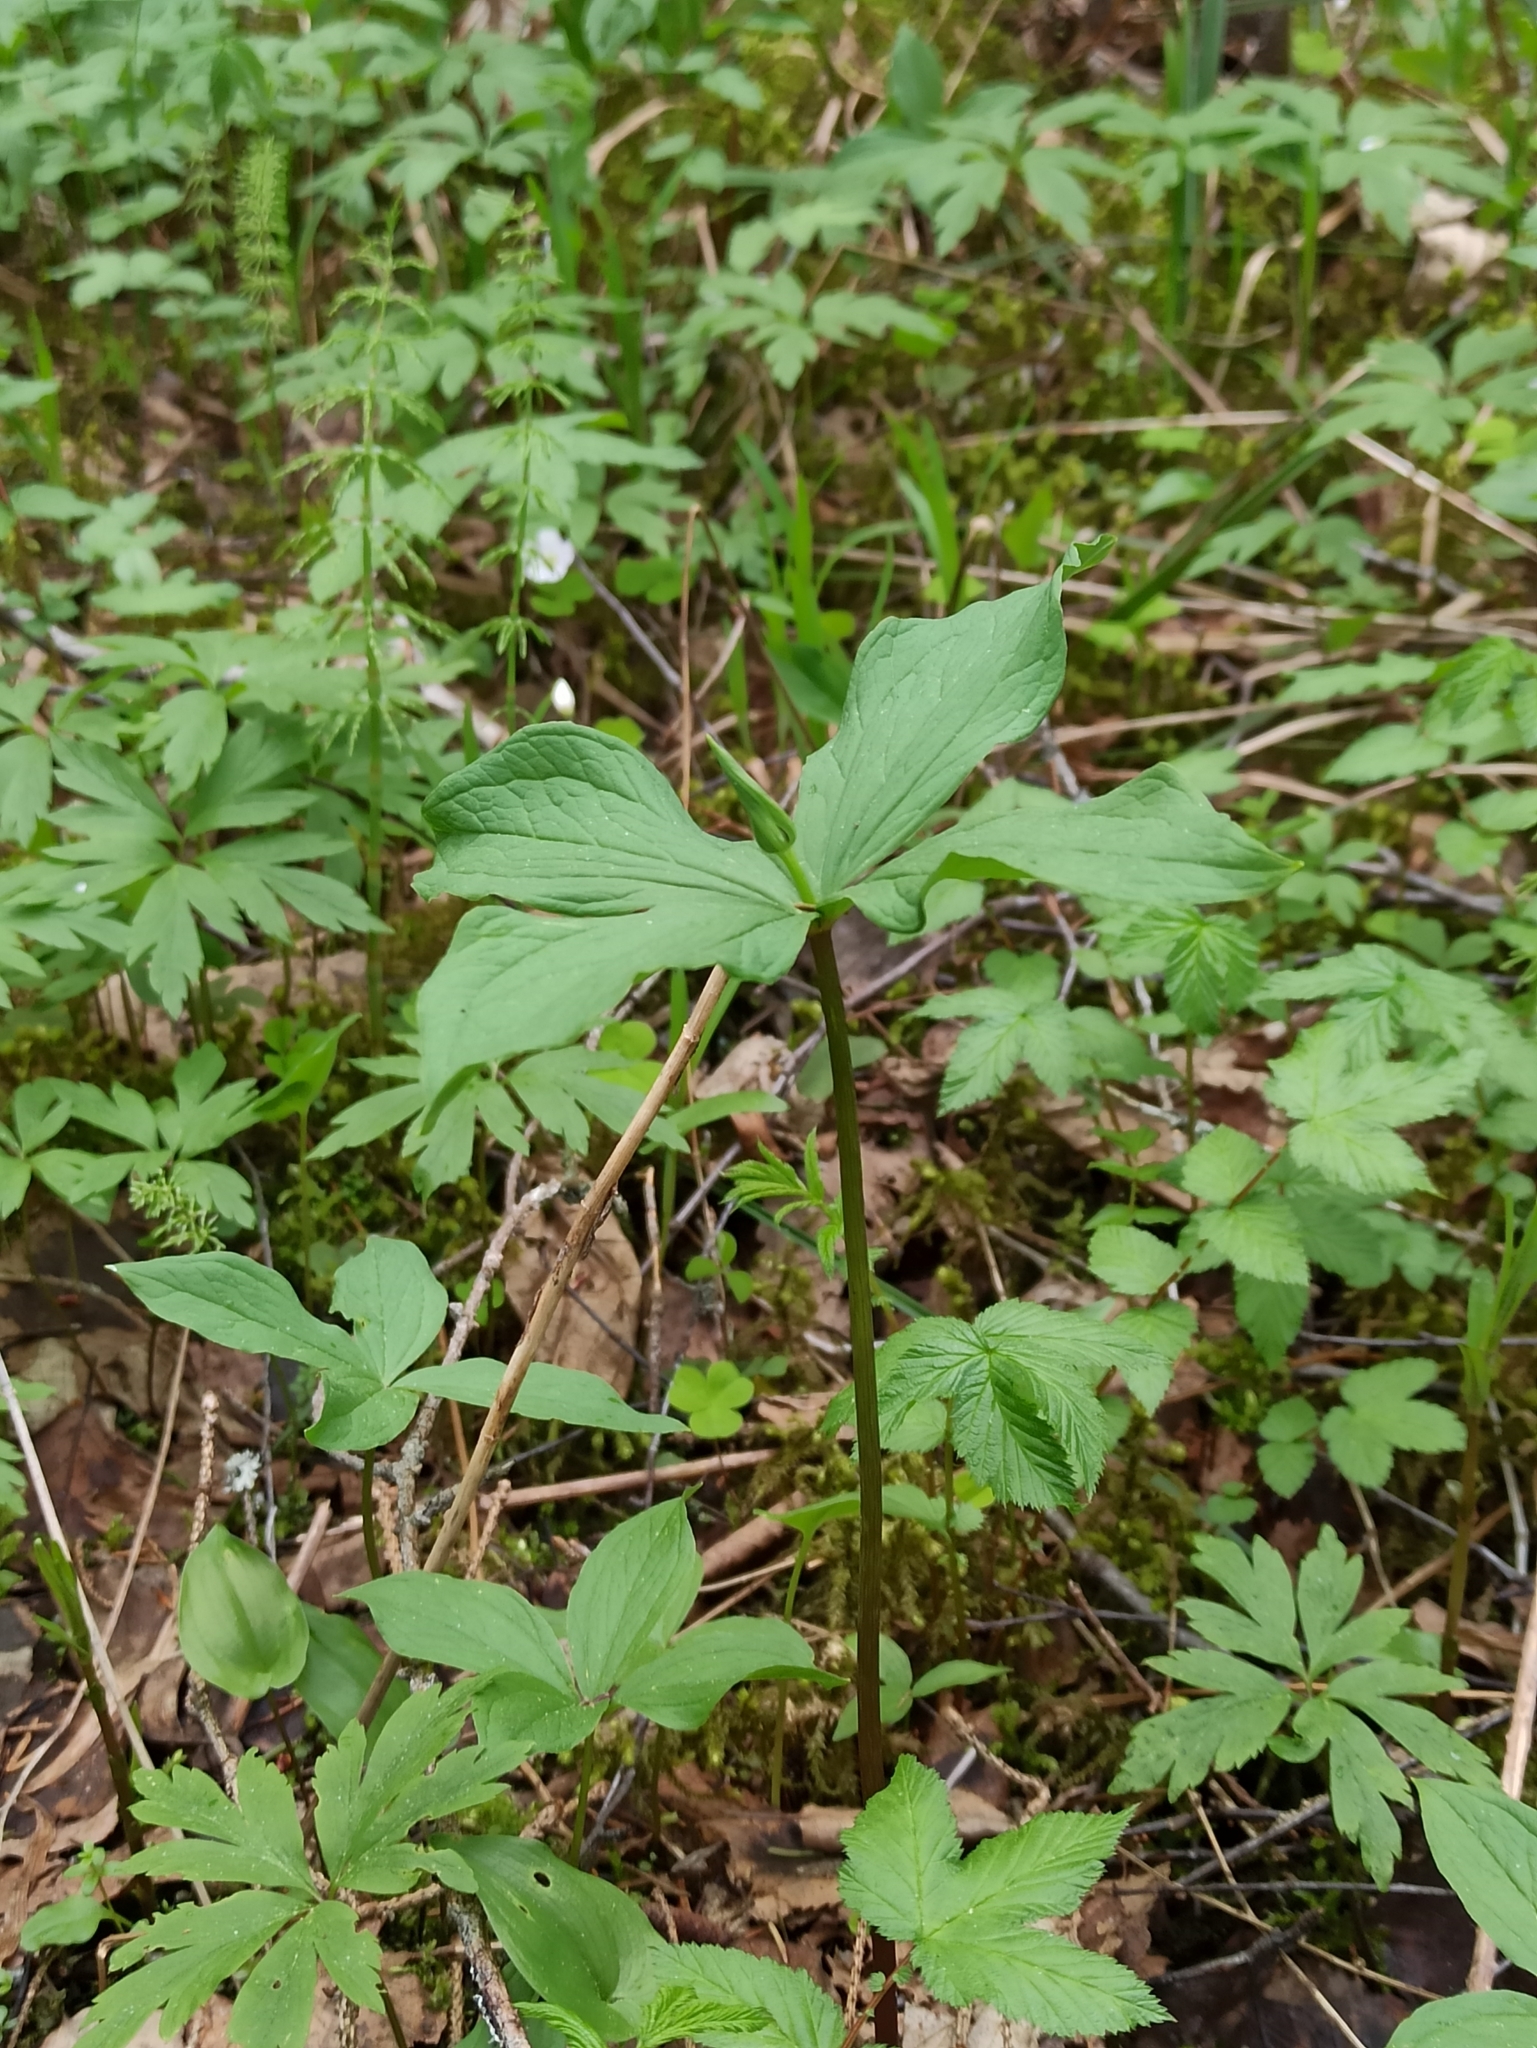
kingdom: Plantae
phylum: Tracheophyta
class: Liliopsida
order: Liliales
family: Melanthiaceae
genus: Paris
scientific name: Paris quadrifolia
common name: Herb-paris
